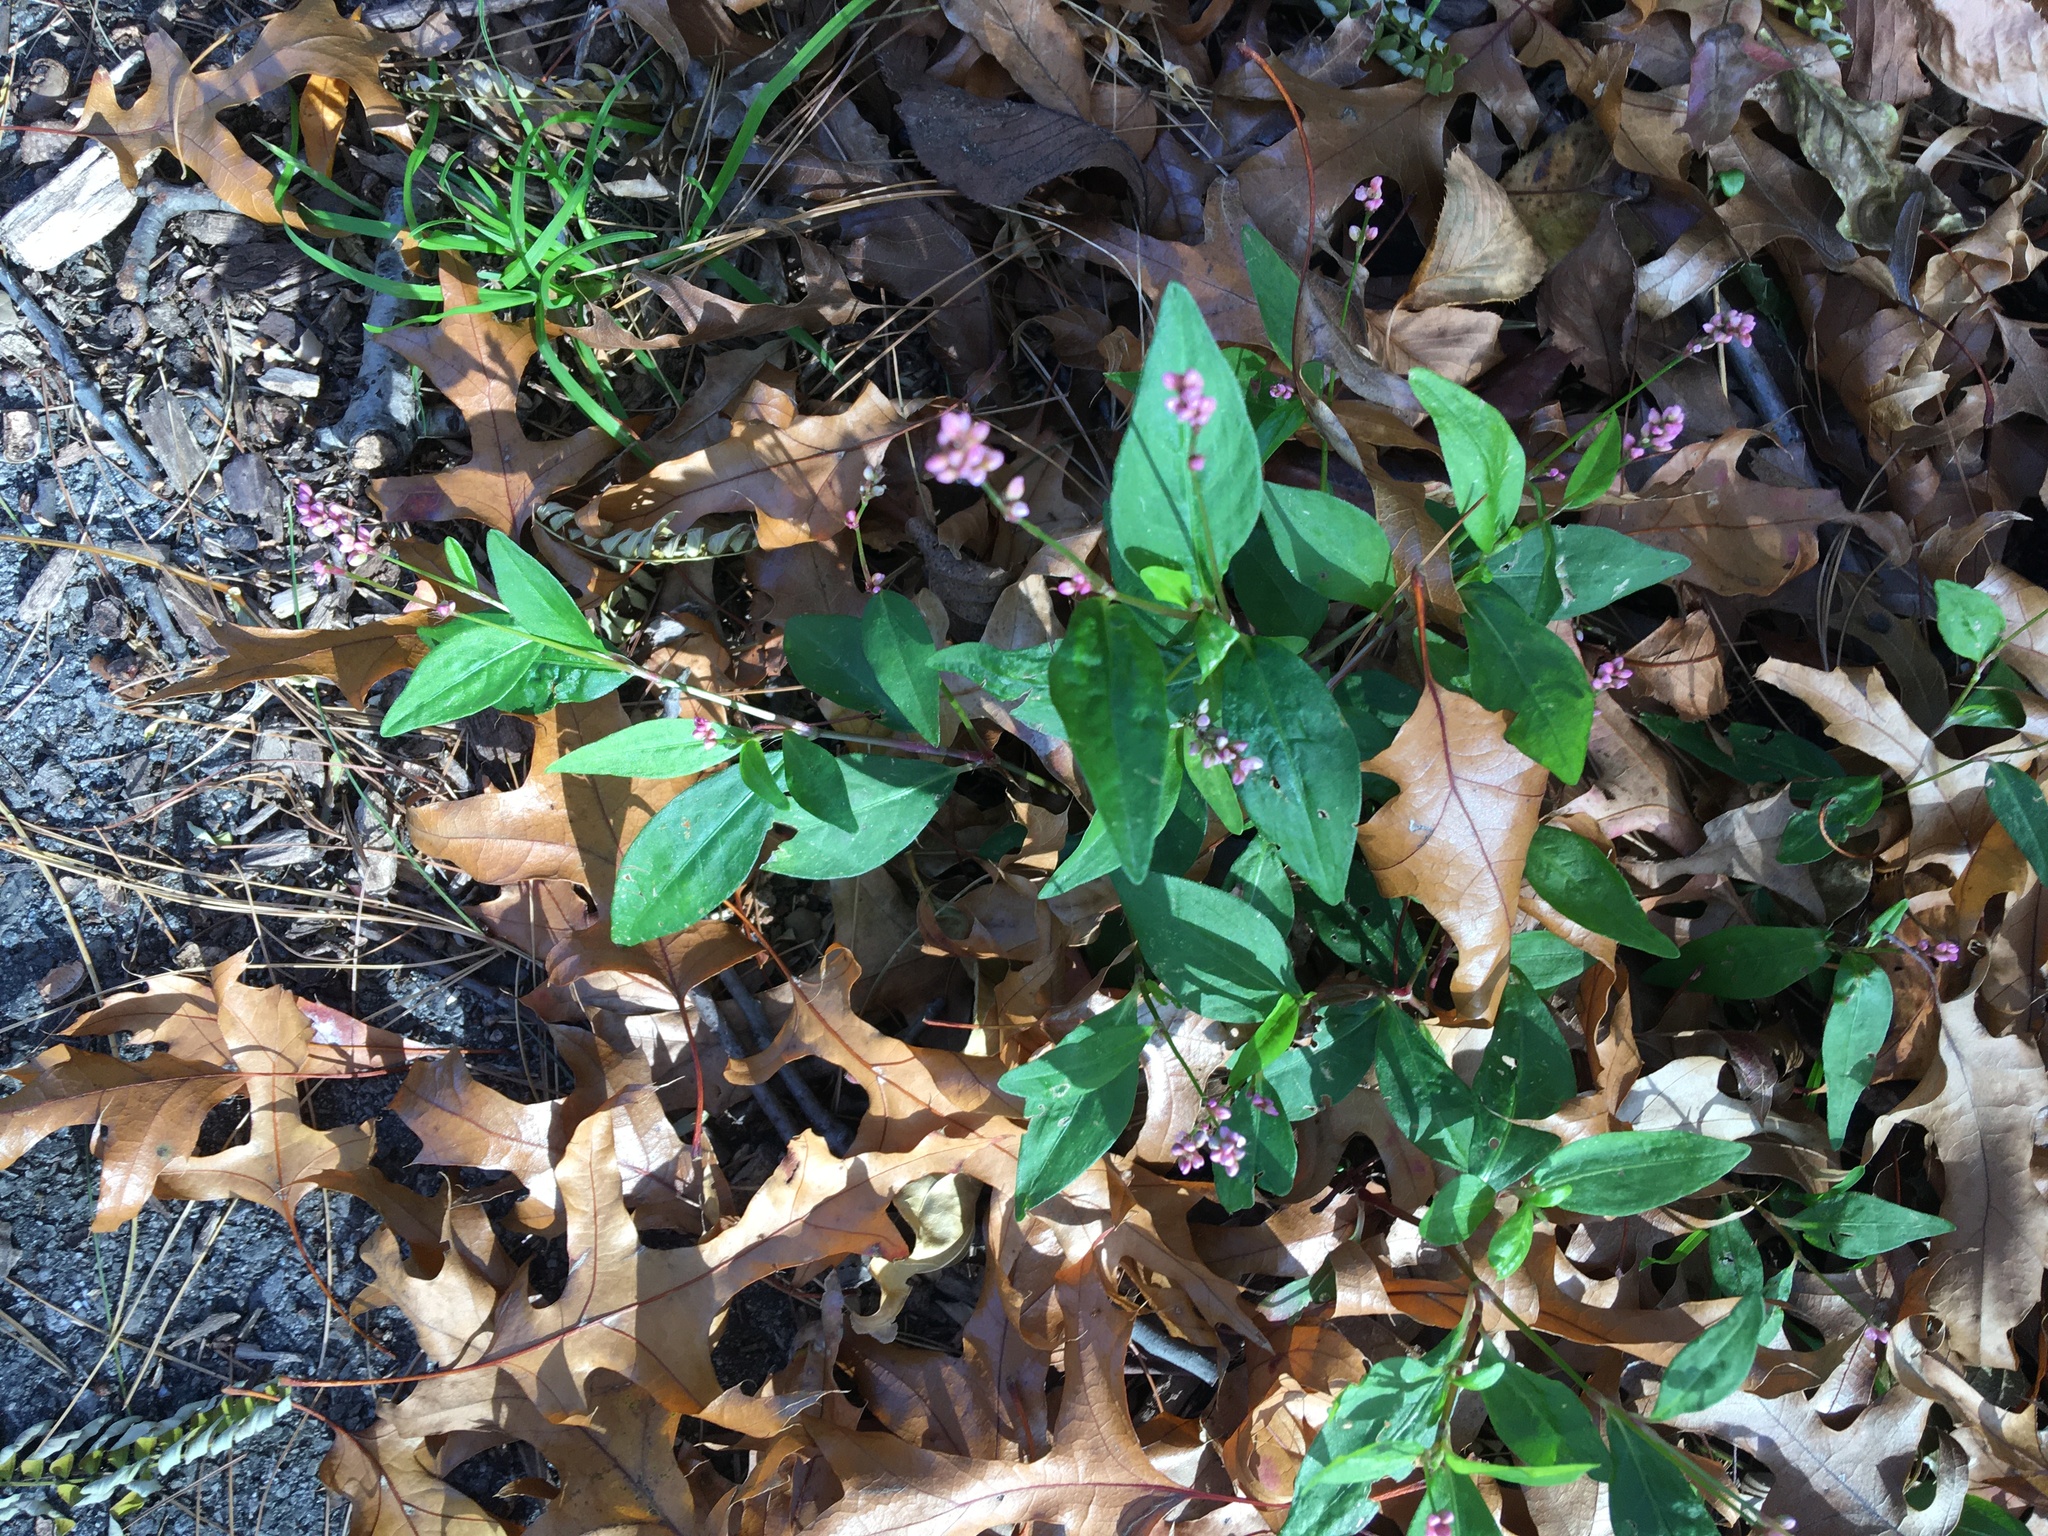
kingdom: Plantae
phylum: Tracheophyta
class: Magnoliopsida
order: Caryophyllales
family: Polygonaceae
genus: Persicaria
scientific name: Persicaria longiseta
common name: Bristly lady's-thumb
